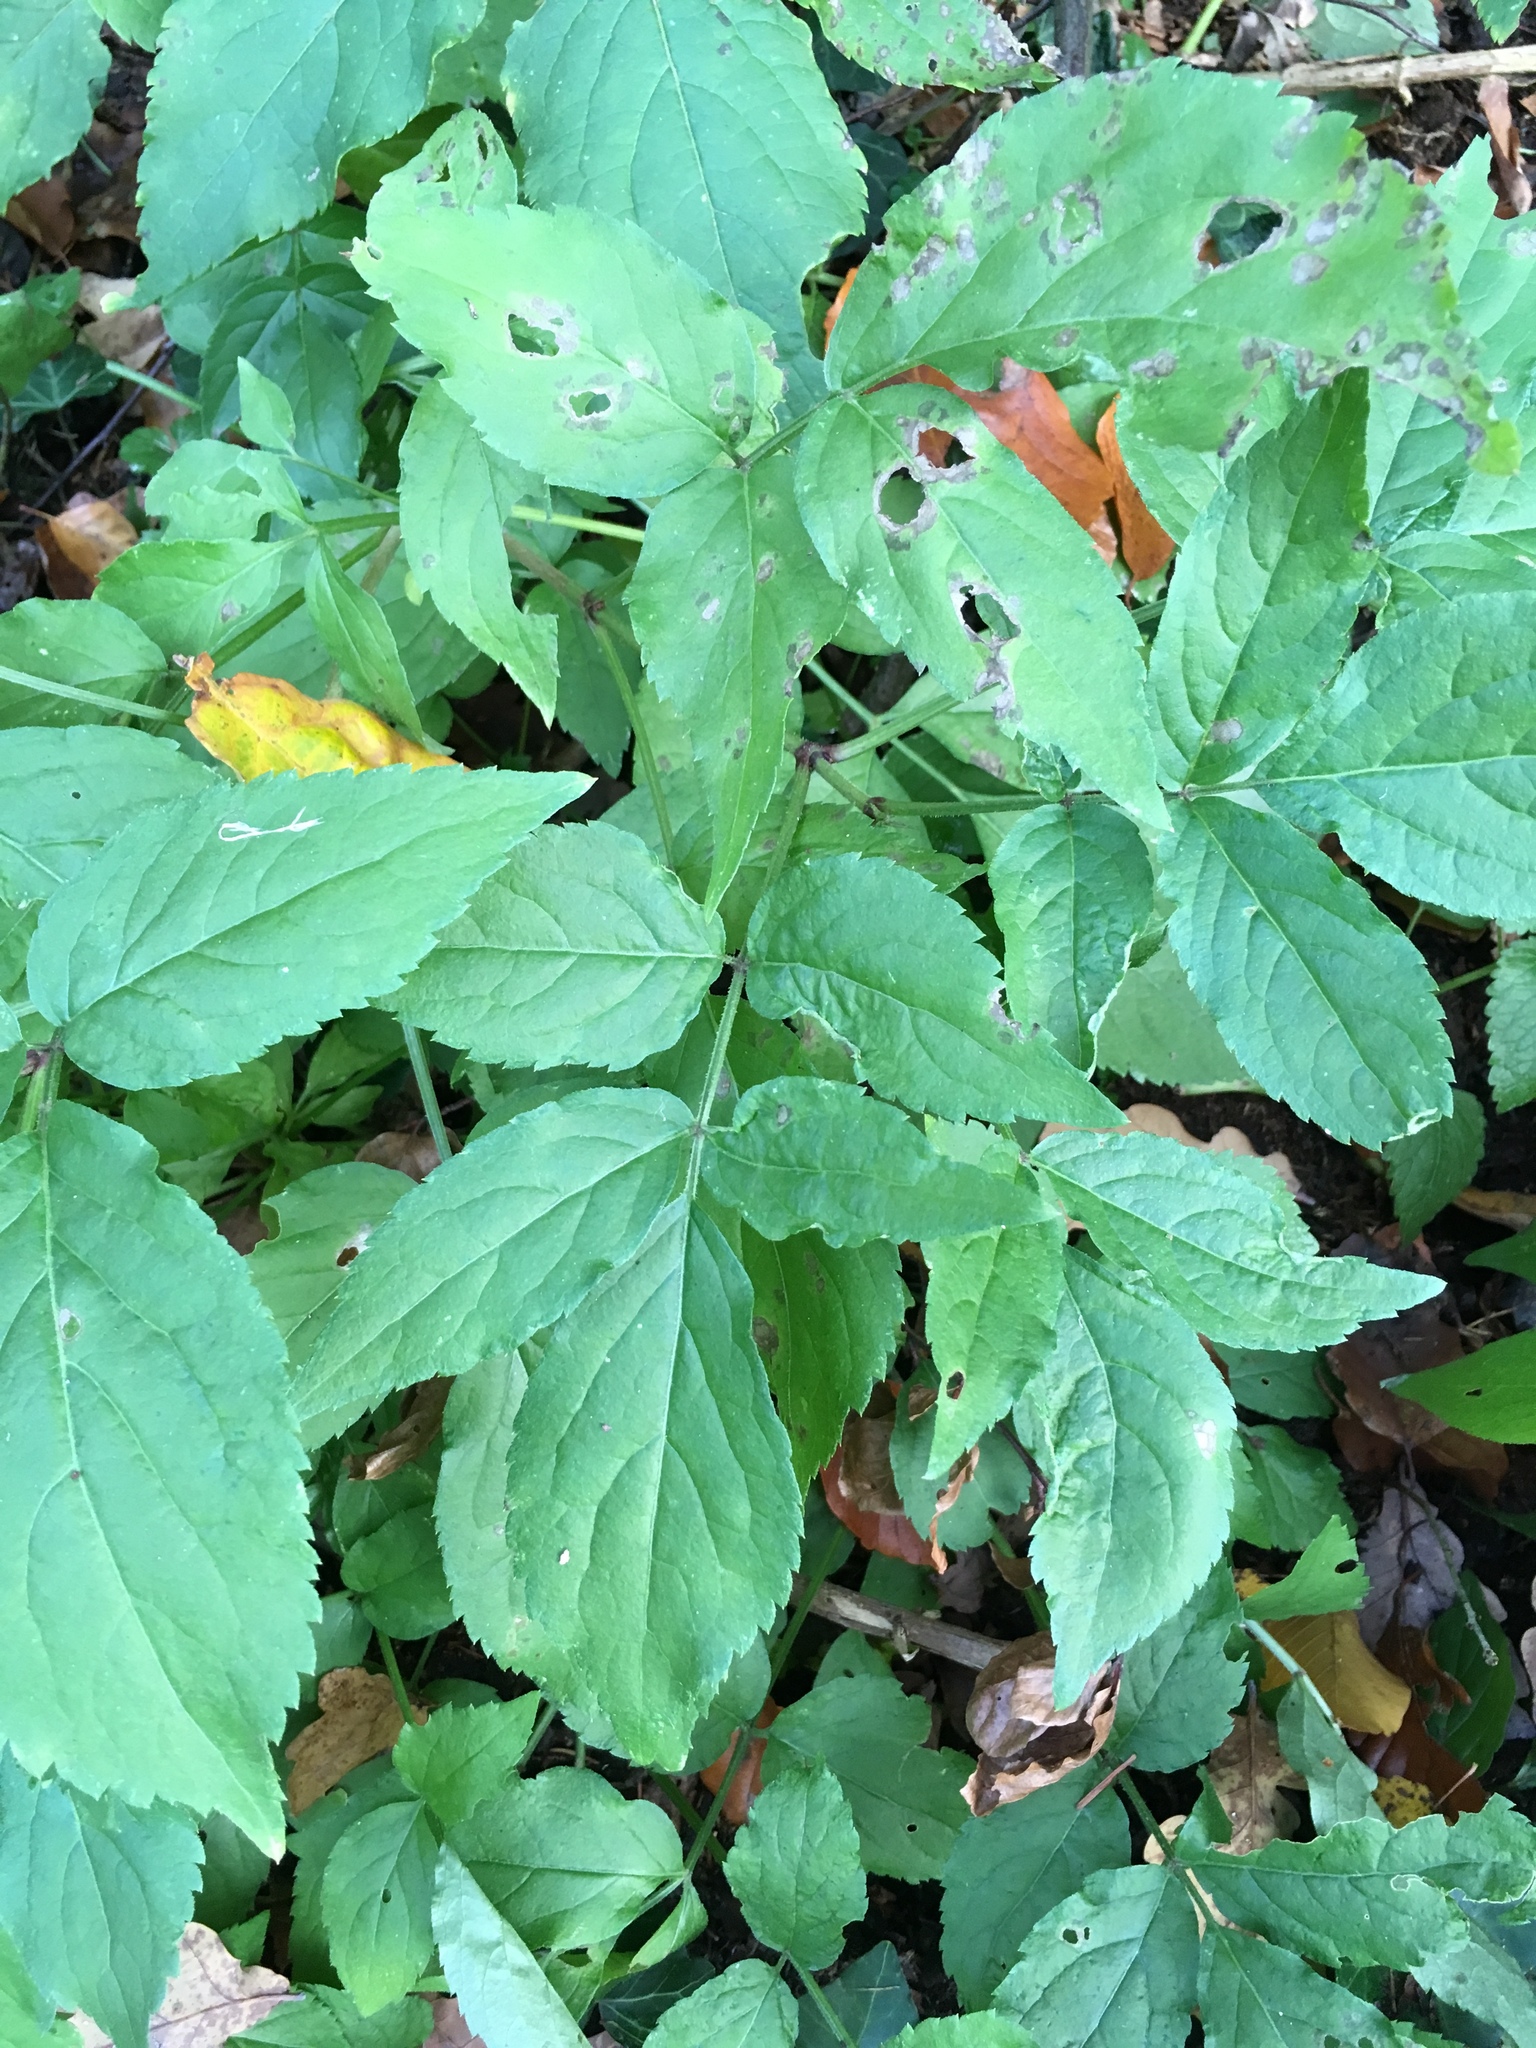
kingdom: Plantae
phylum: Tracheophyta
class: Magnoliopsida
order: Dipsacales
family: Viburnaceae
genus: Sambucus
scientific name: Sambucus nigra
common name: Elder
